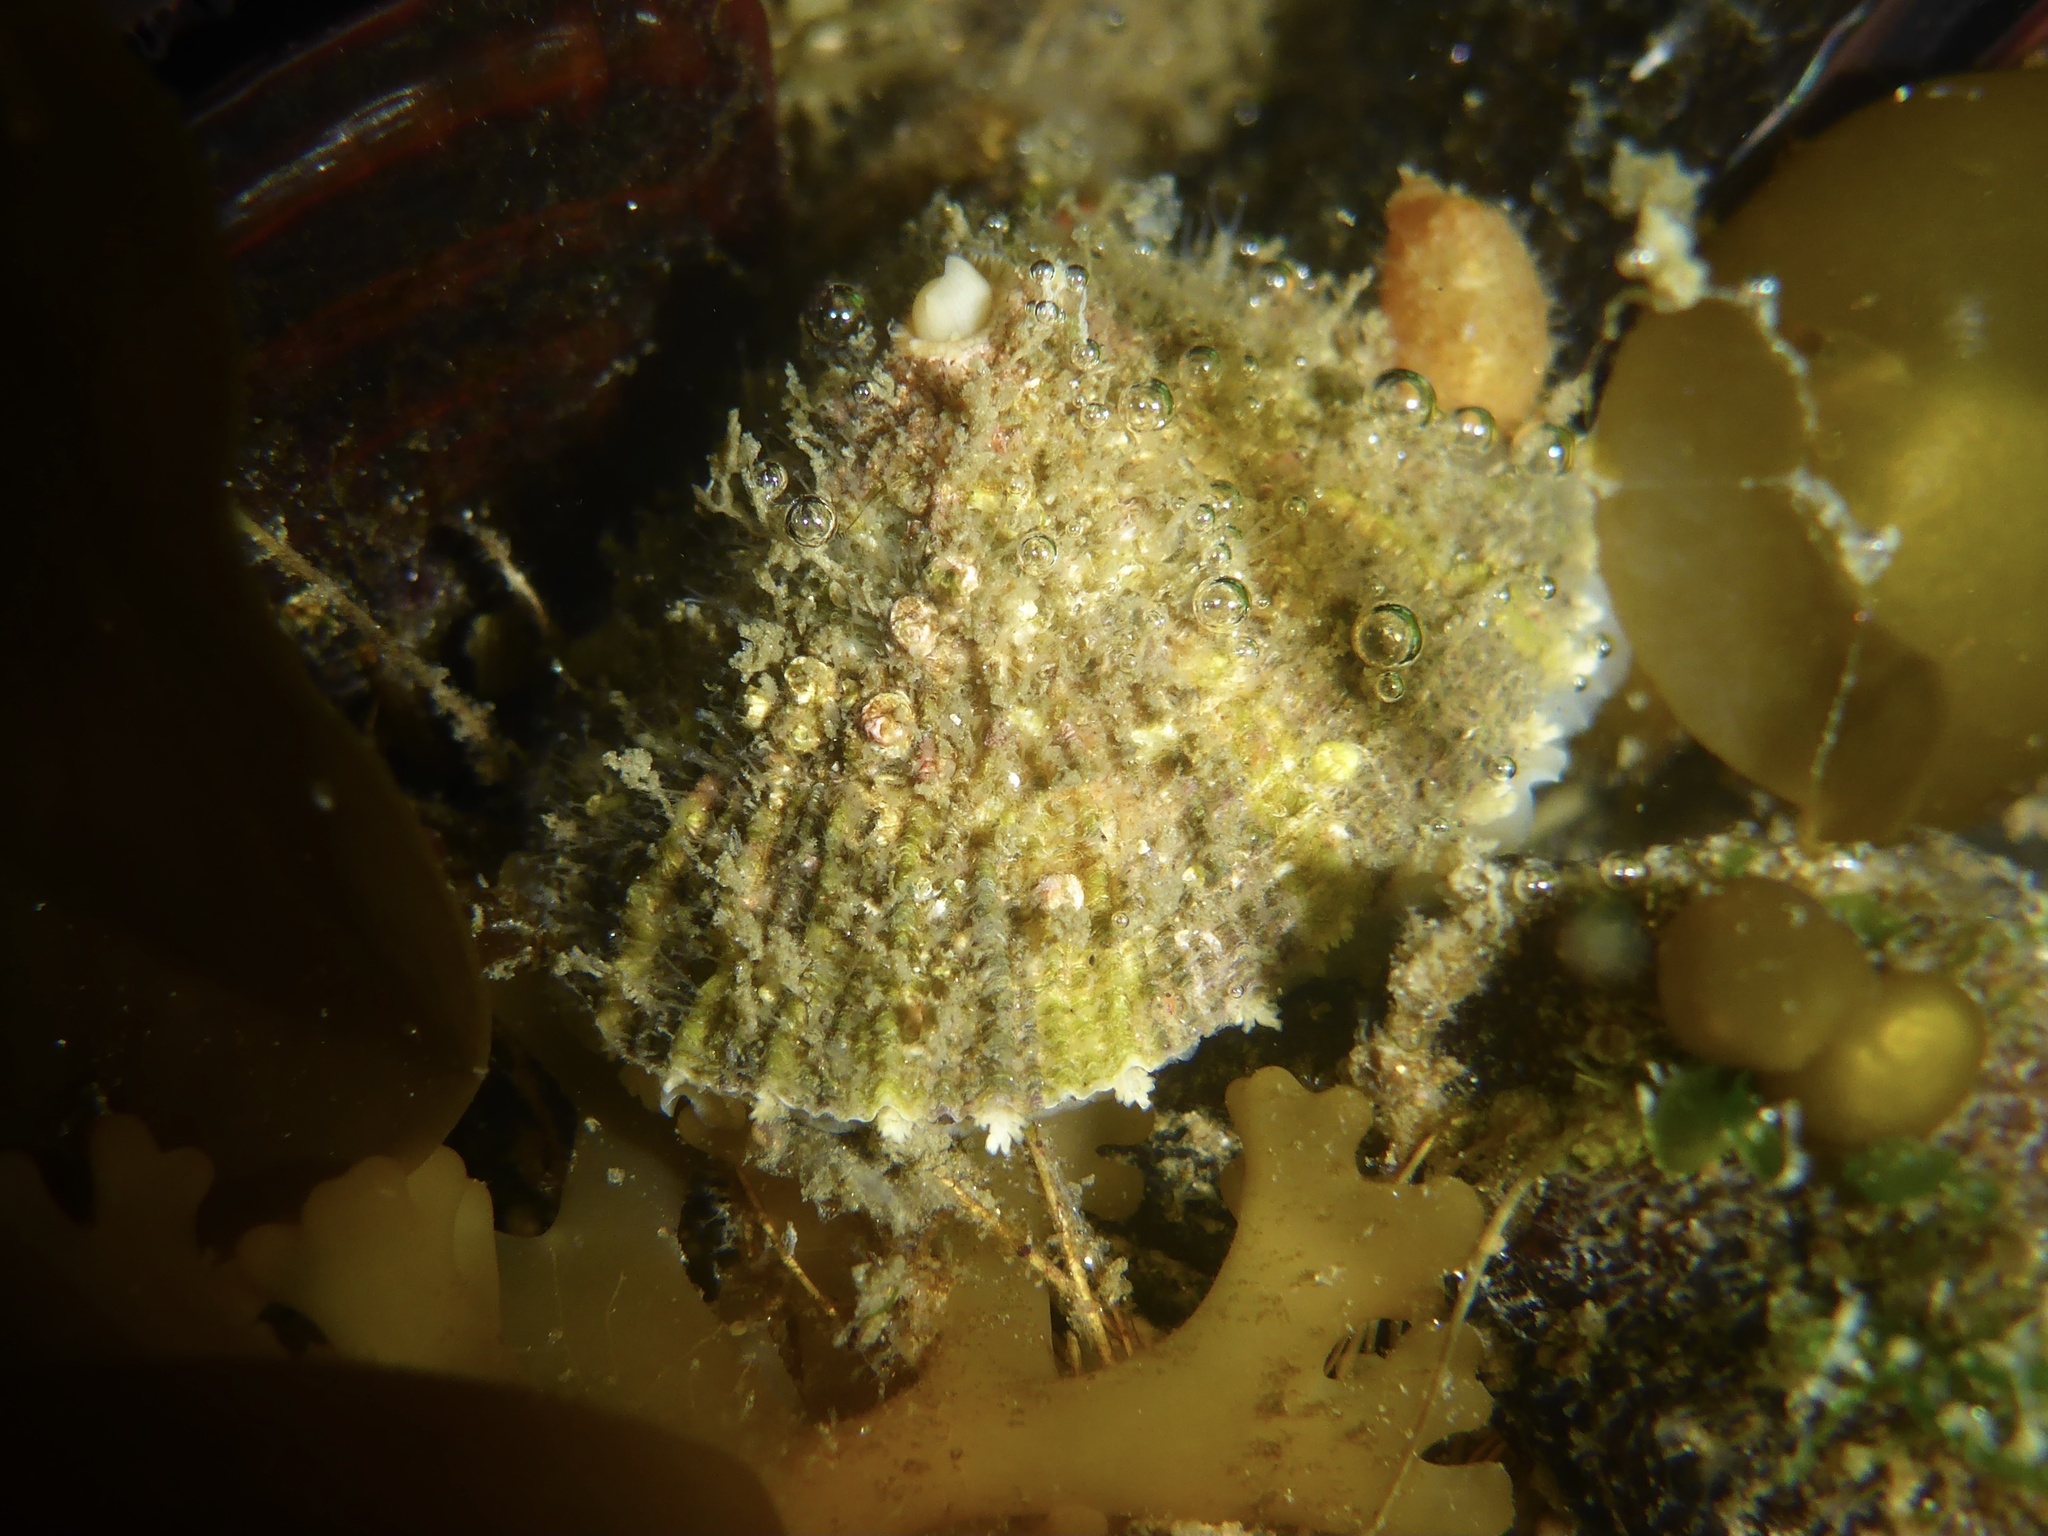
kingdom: Animalia
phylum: Mollusca
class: Gastropoda
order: Lepetellida
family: Fissurellidae
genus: Diodora
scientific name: Diodora aspera
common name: Rough keyhole limpet
